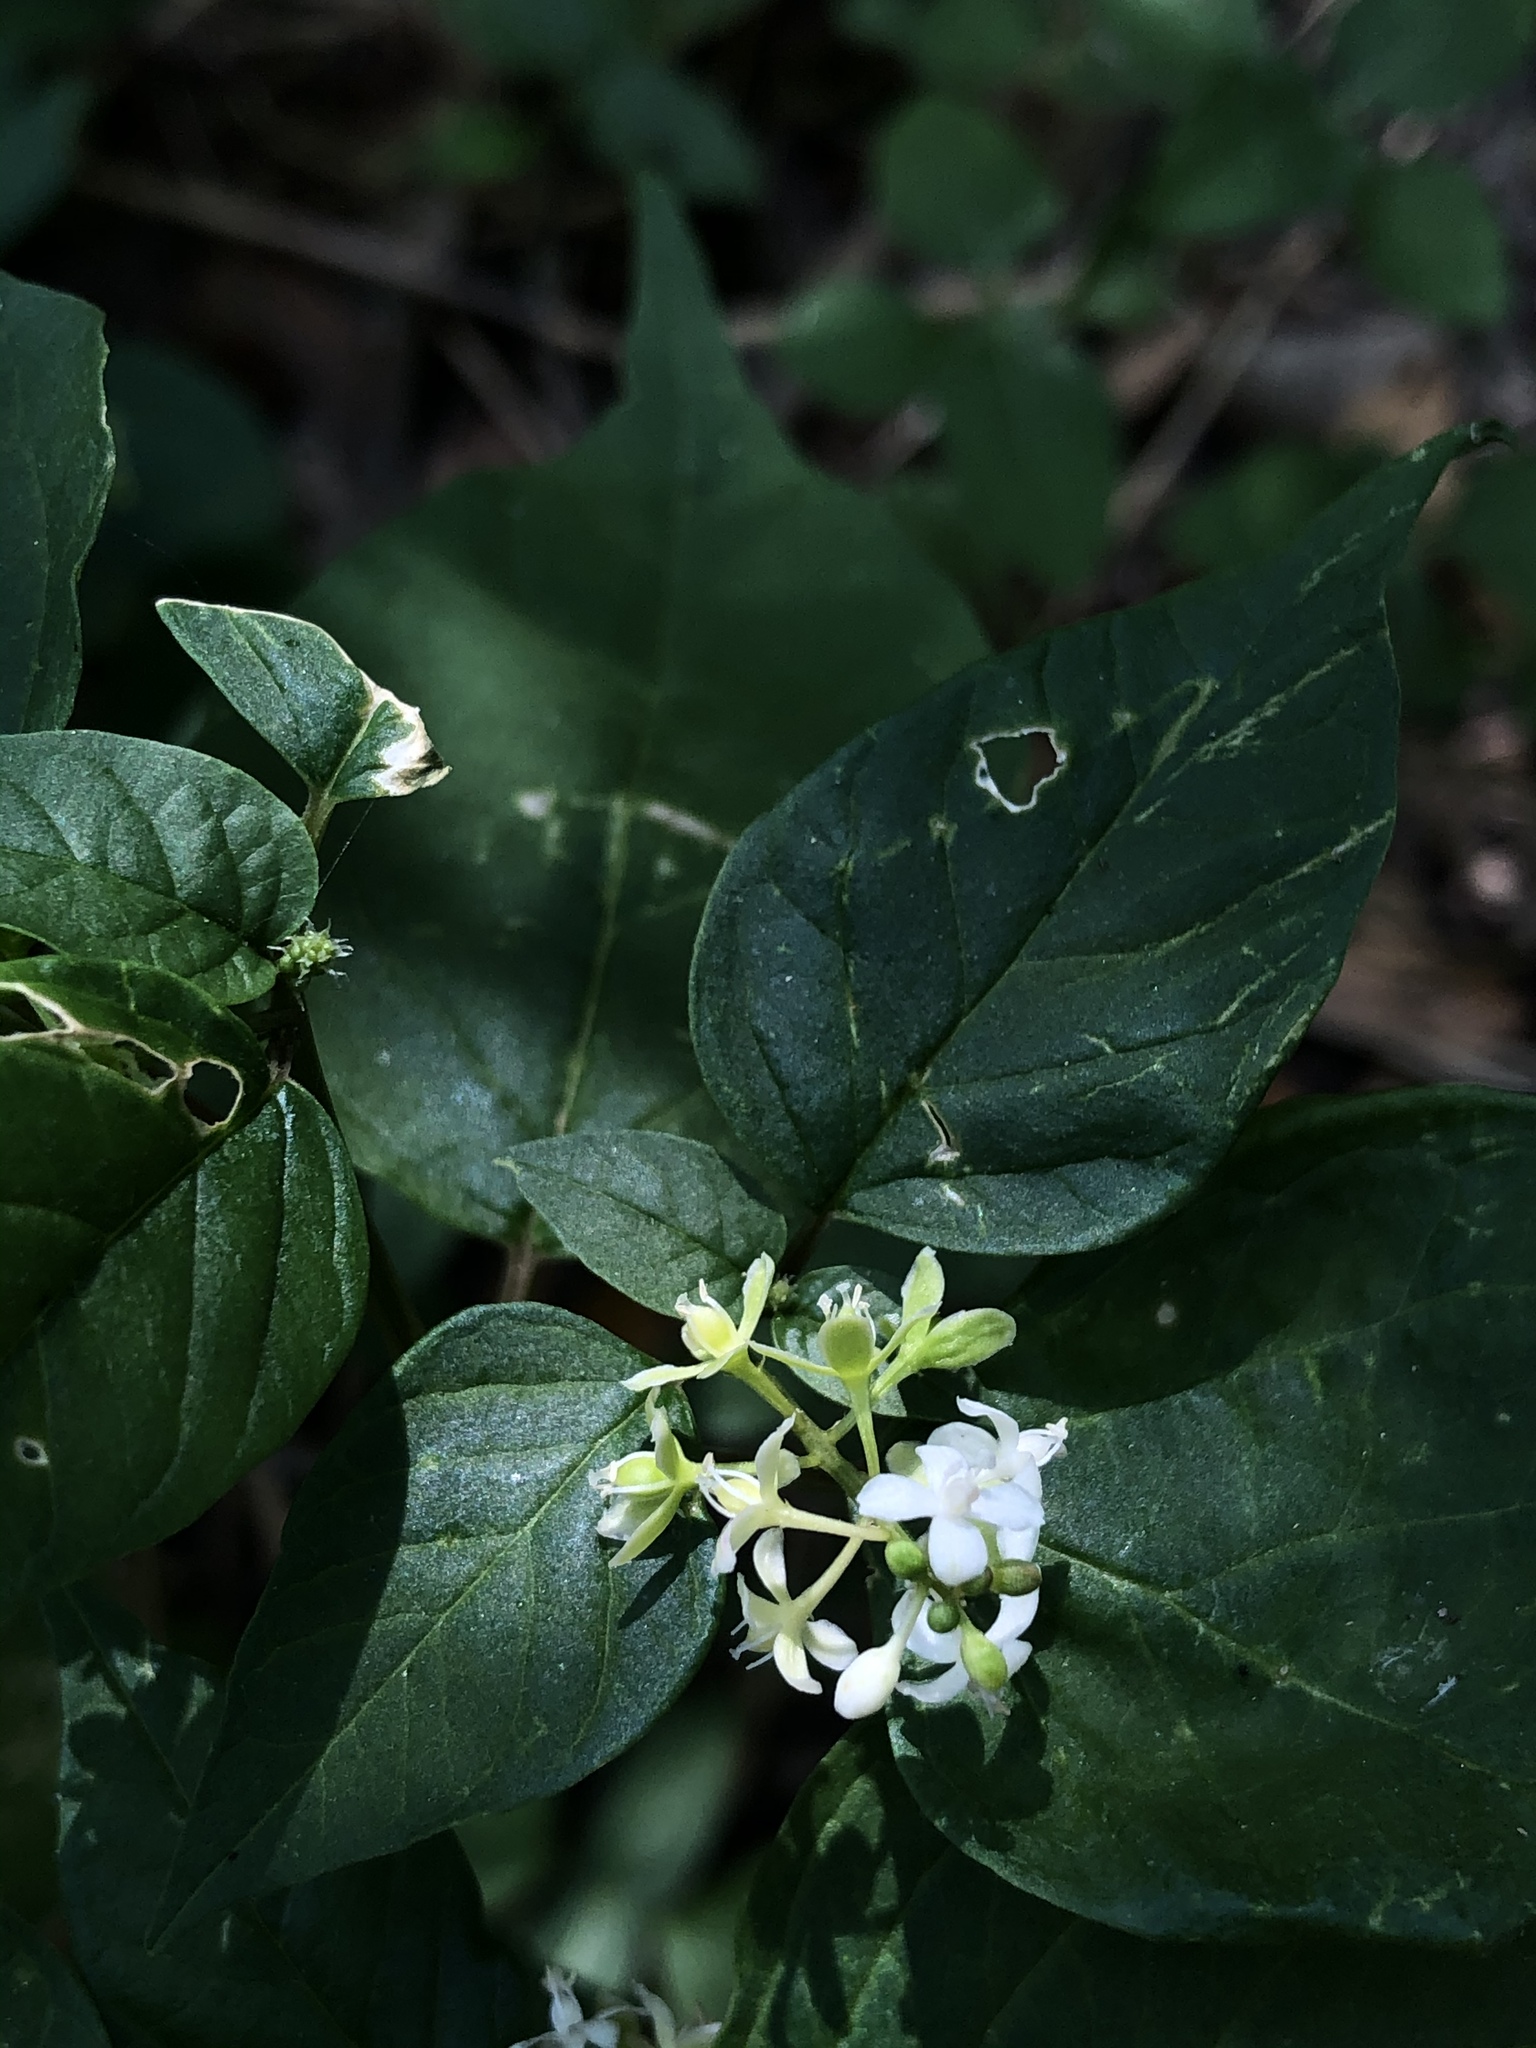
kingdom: Plantae
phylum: Tracheophyta
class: Magnoliopsida
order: Caryophyllales
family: Phytolaccaceae
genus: Rivina
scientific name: Rivina humilis
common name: Rougeplant
